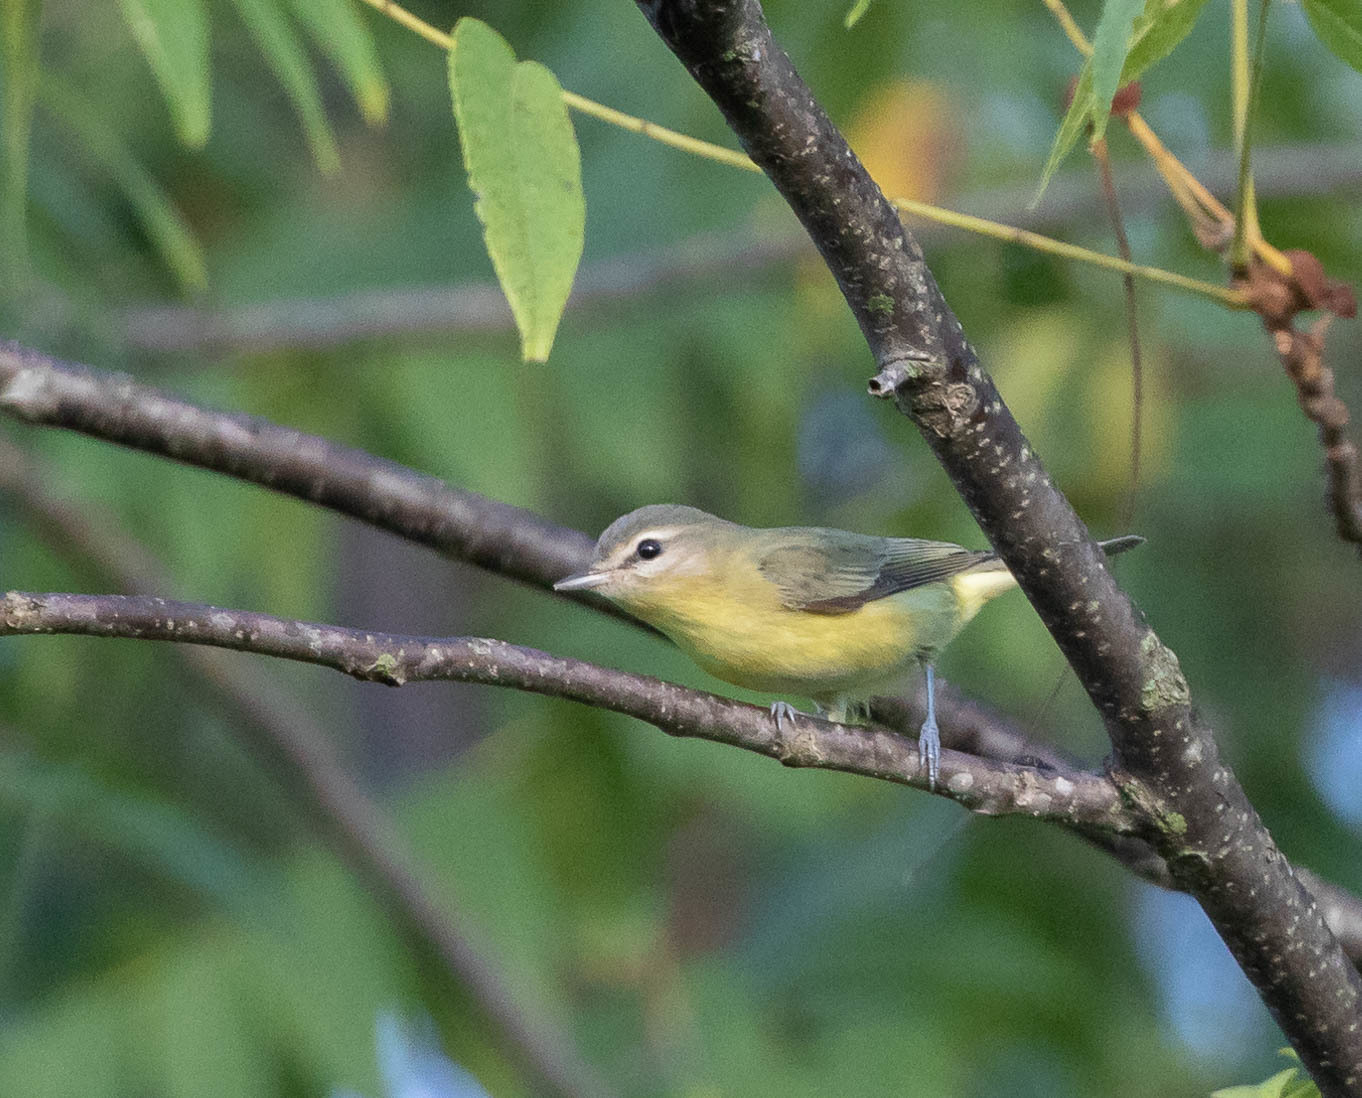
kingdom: Animalia
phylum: Chordata
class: Aves
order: Passeriformes
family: Vireonidae
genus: Vireo
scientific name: Vireo philadelphicus
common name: Philadelphia vireo
